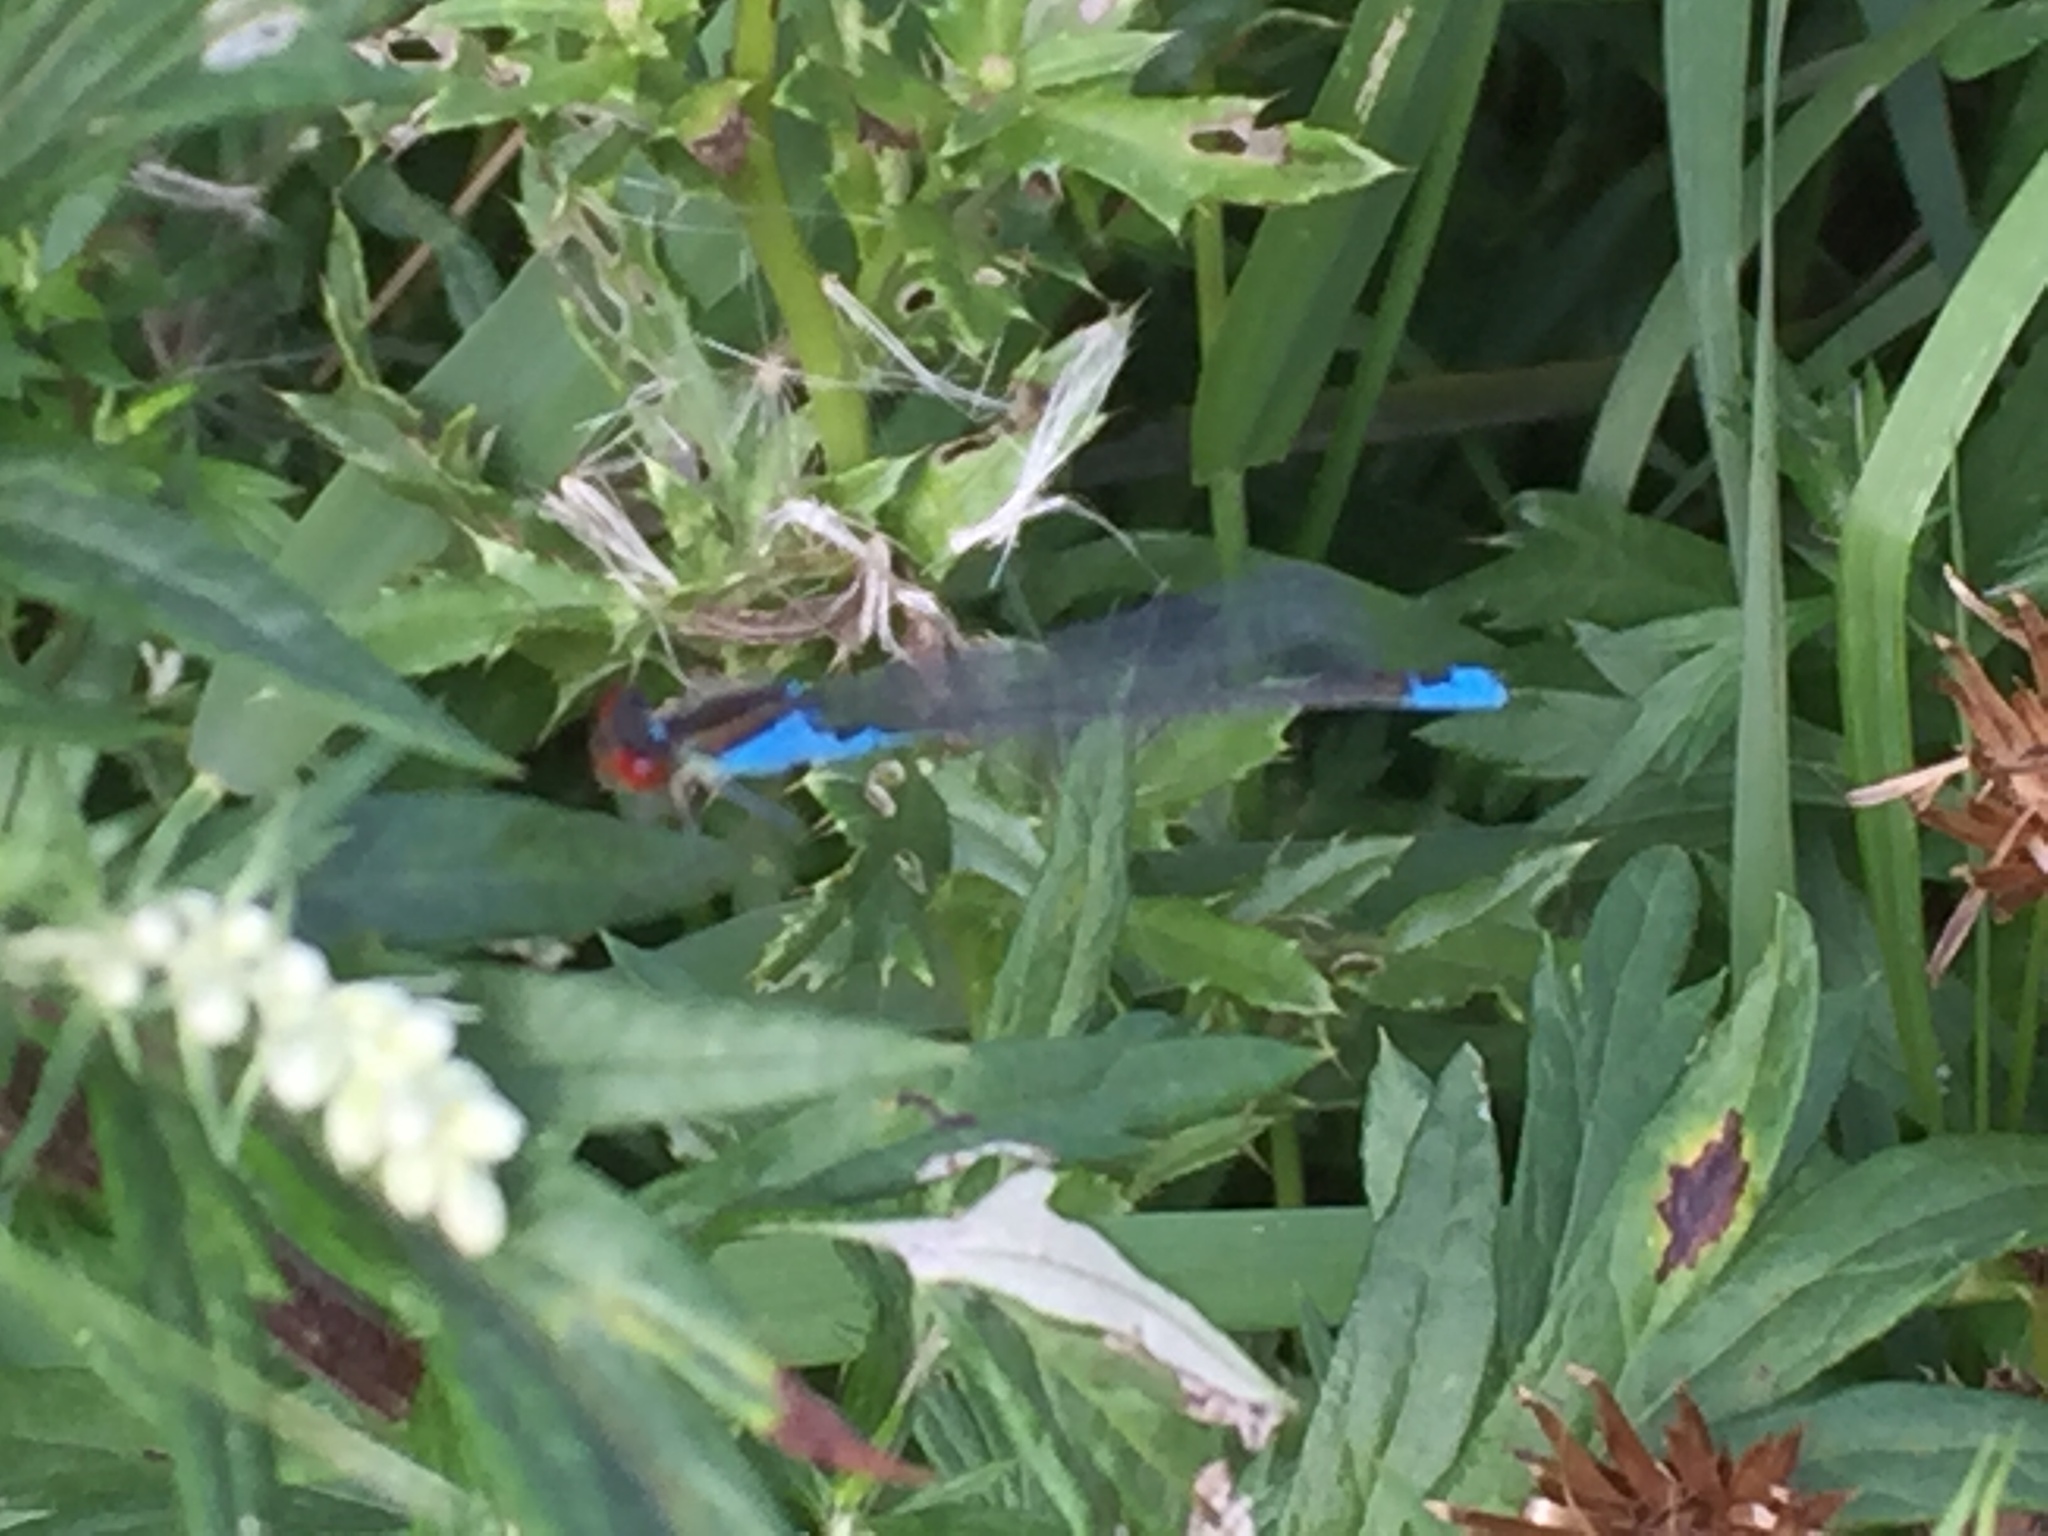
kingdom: Animalia
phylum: Arthropoda
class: Insecta
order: Odonata
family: Coenagrionidae
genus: Erythromma
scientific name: Erythromma viridulum
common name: Small red-eyed damselfly
